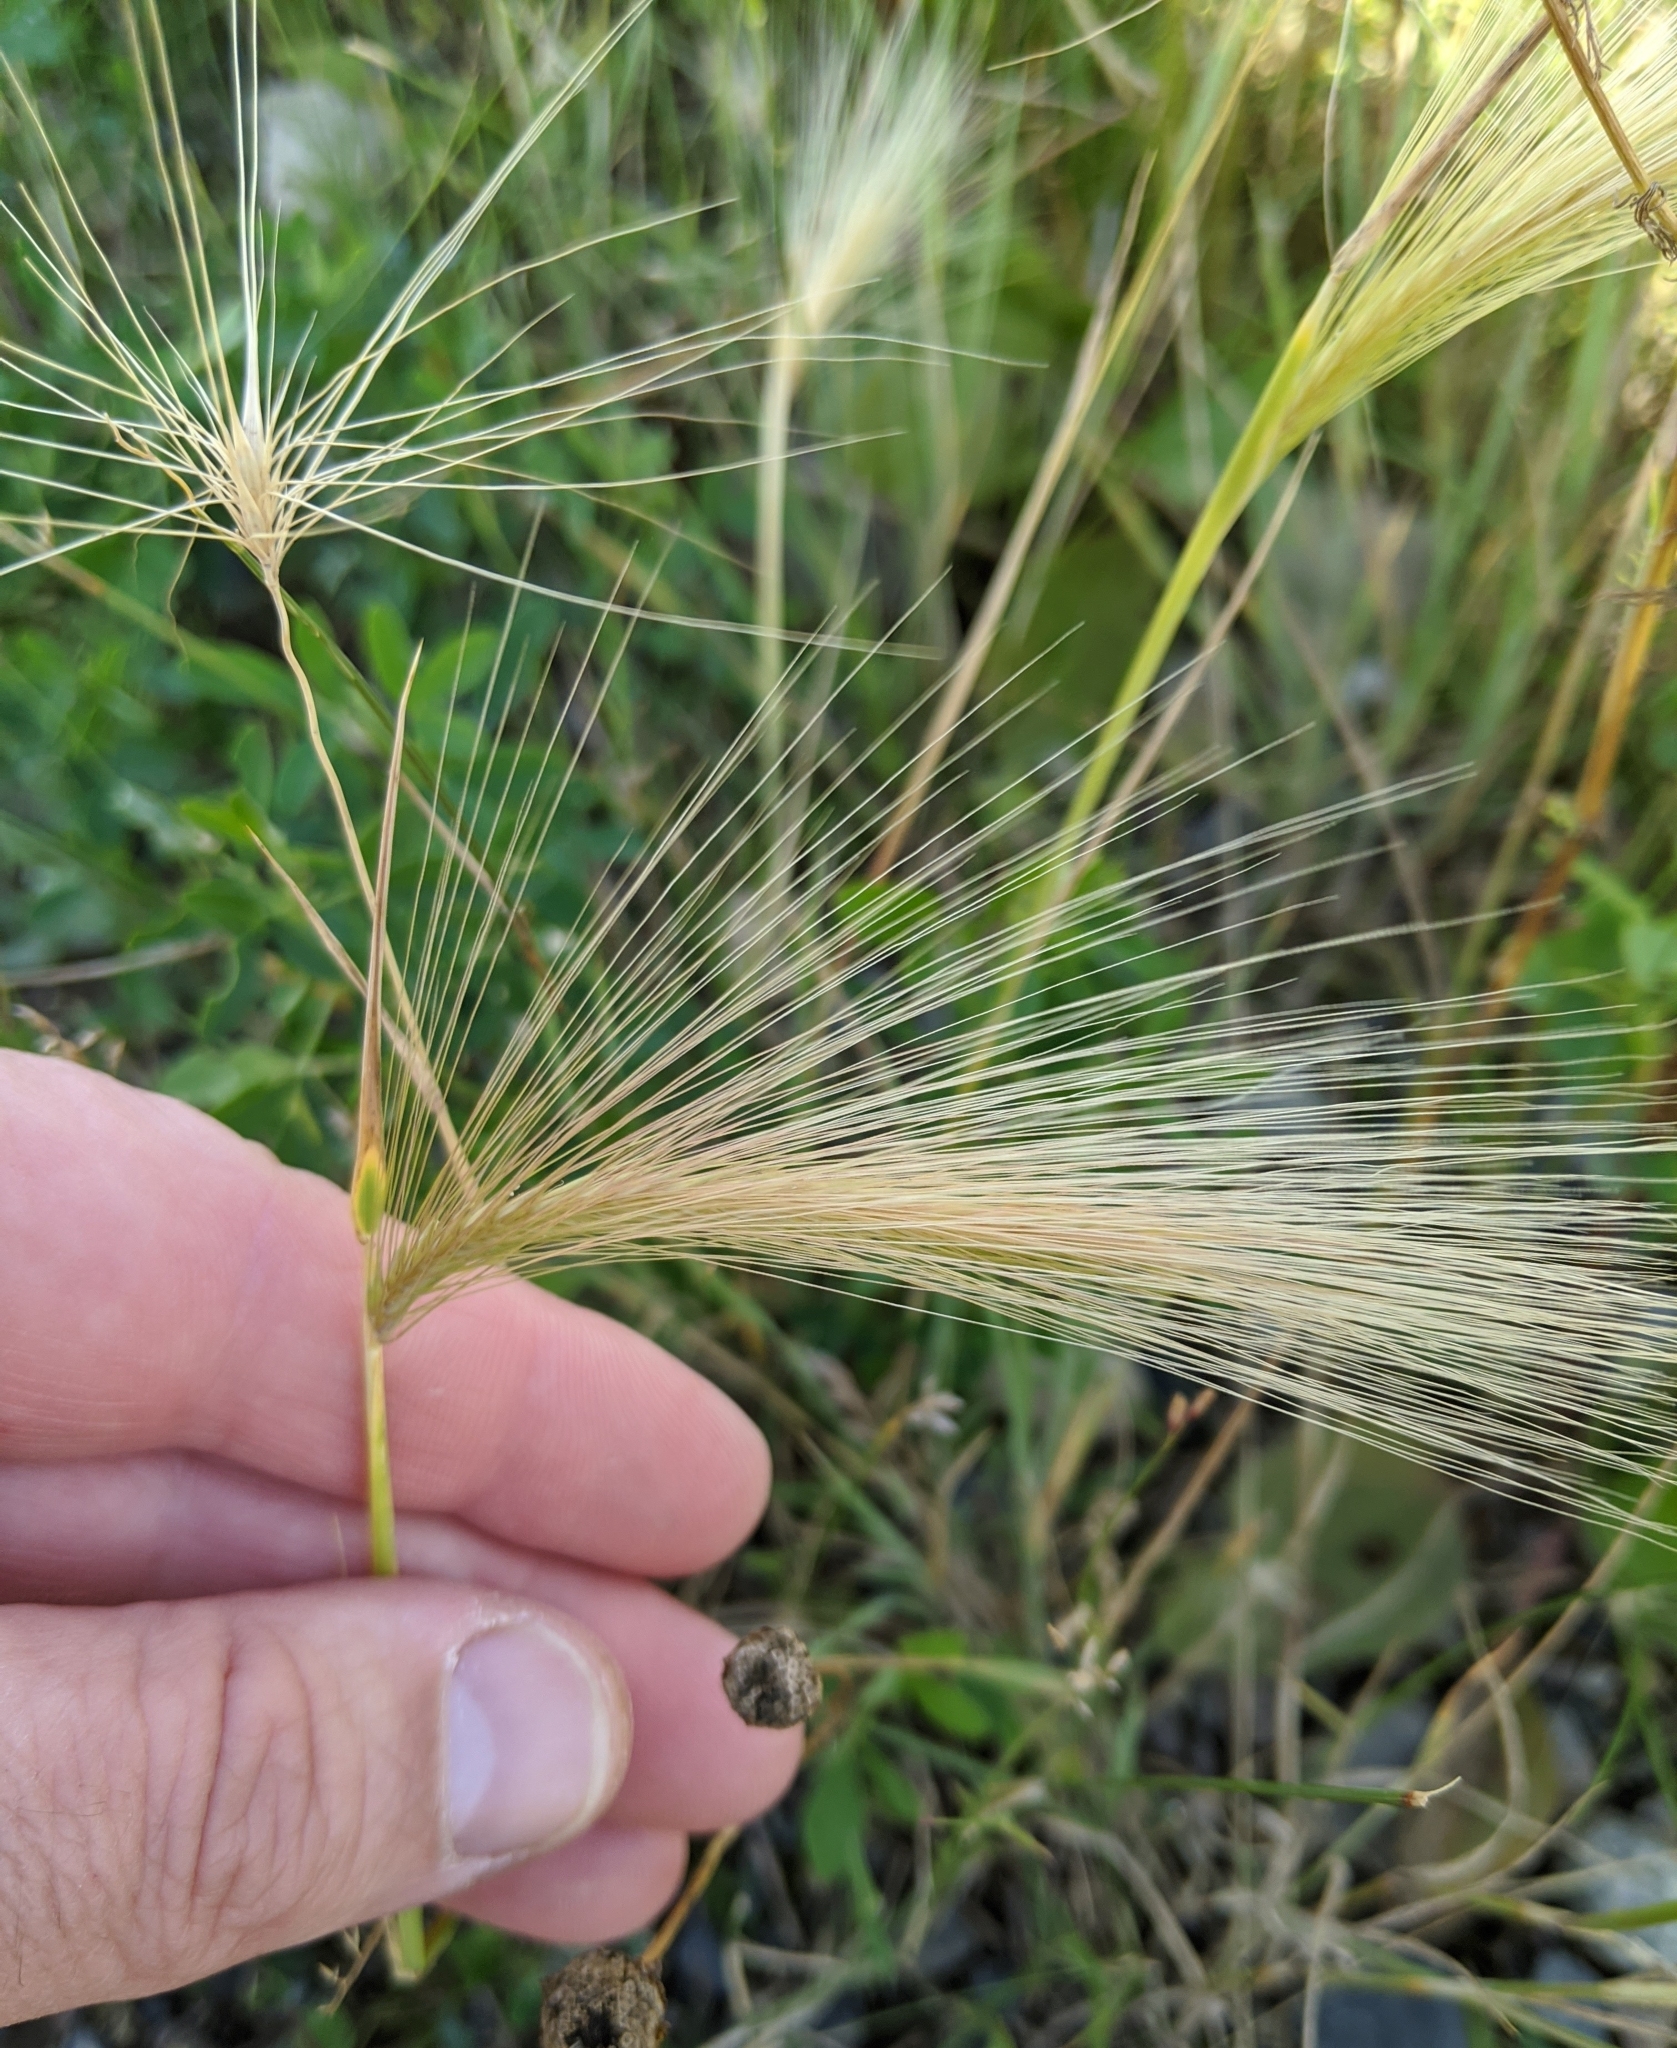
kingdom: Plantae
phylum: Tracheophyta
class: Liliopsida
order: Poales
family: Poaceae
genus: Hordeum
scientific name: Hordeum jubatum
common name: Foxtail barley
